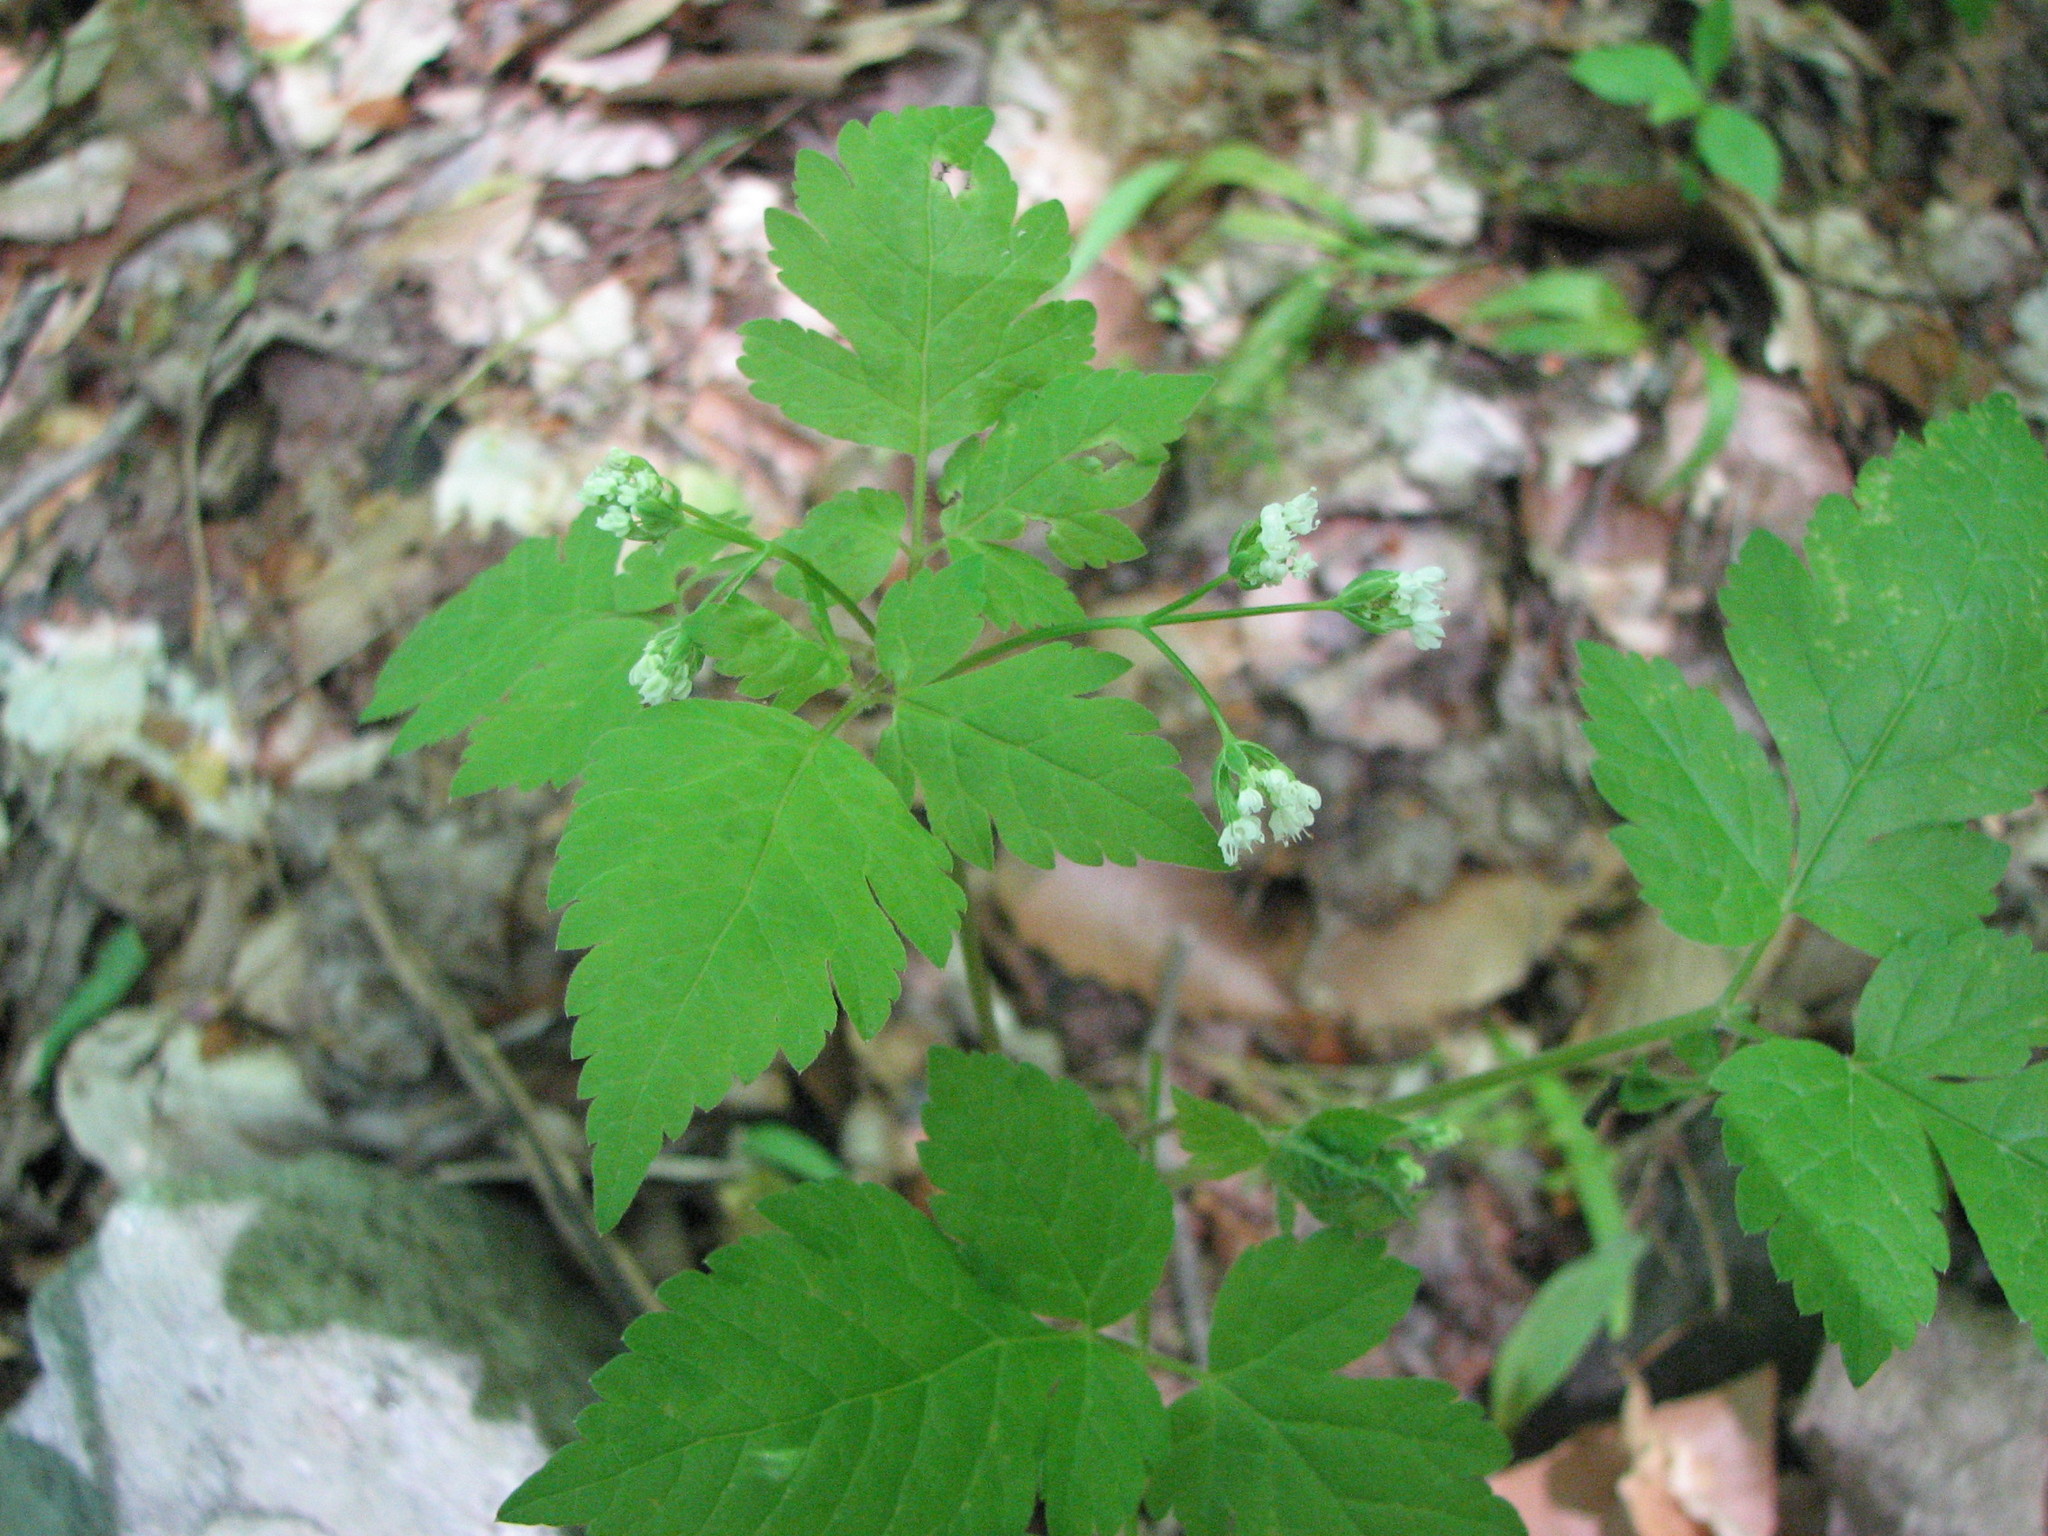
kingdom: Plantae
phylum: Tracheophyta
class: Magnoliopsida
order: Apiales
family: Apiaceae
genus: Osmorhiza
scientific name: Osmorhiza longistylis
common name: Smooth sweet cicely
